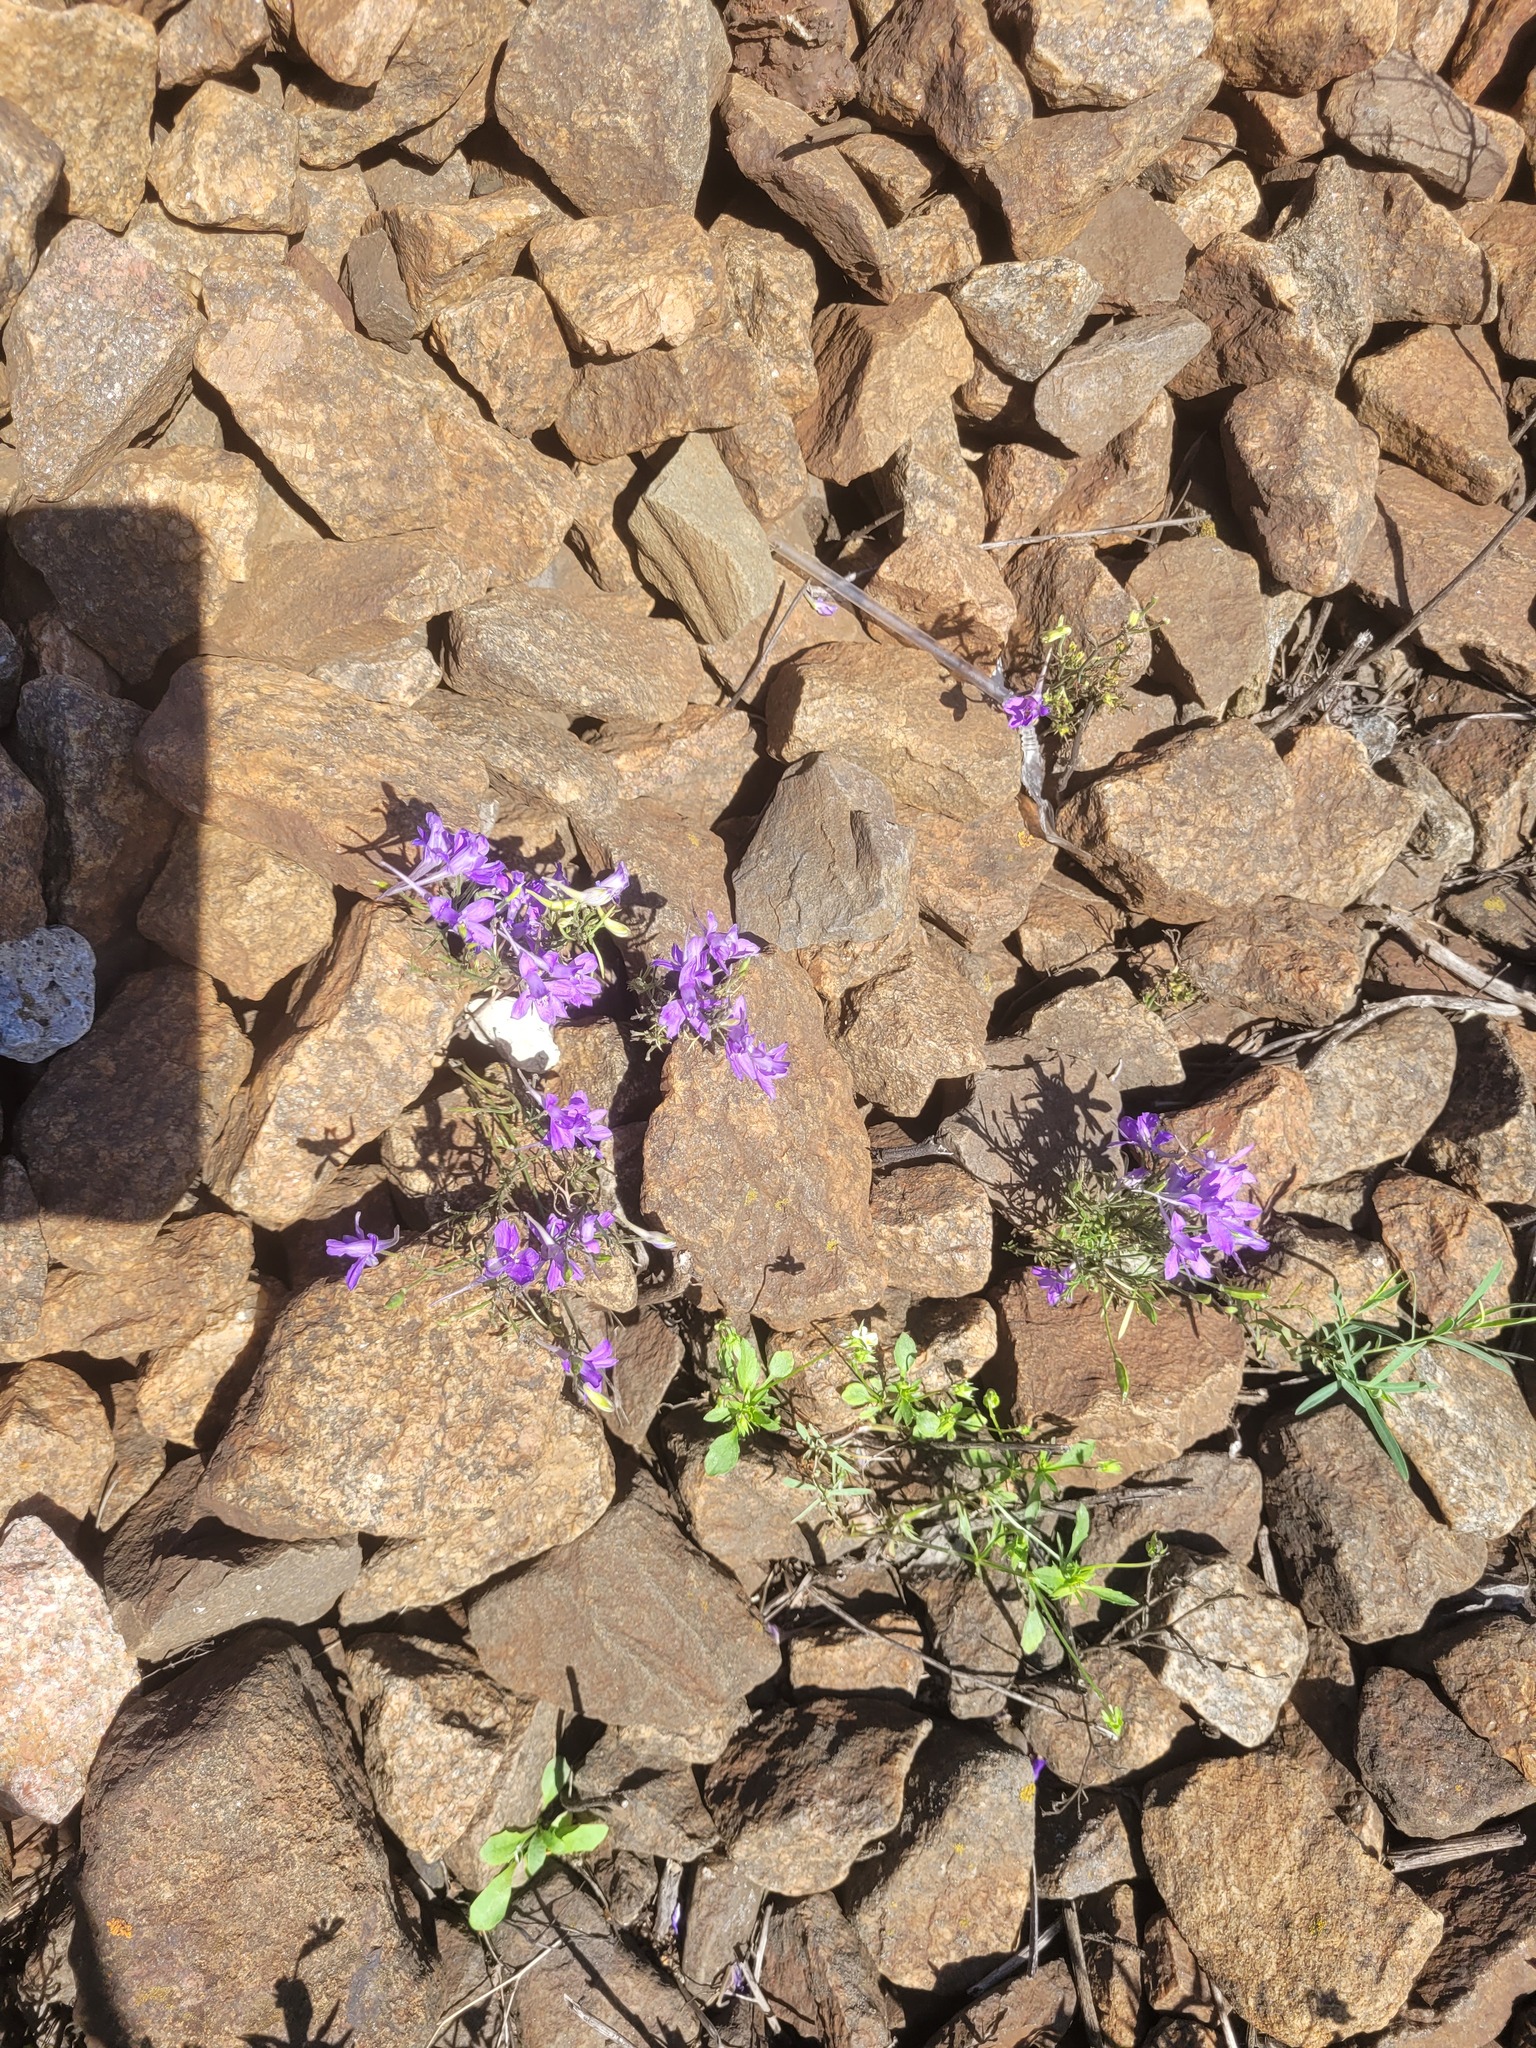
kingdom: Plantae
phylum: Tracheophyta
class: Magnoliopsida
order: Ranunculales
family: Ranunculaceae
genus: Delphinium
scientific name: Delphinium consolida
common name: Branching larkspur
